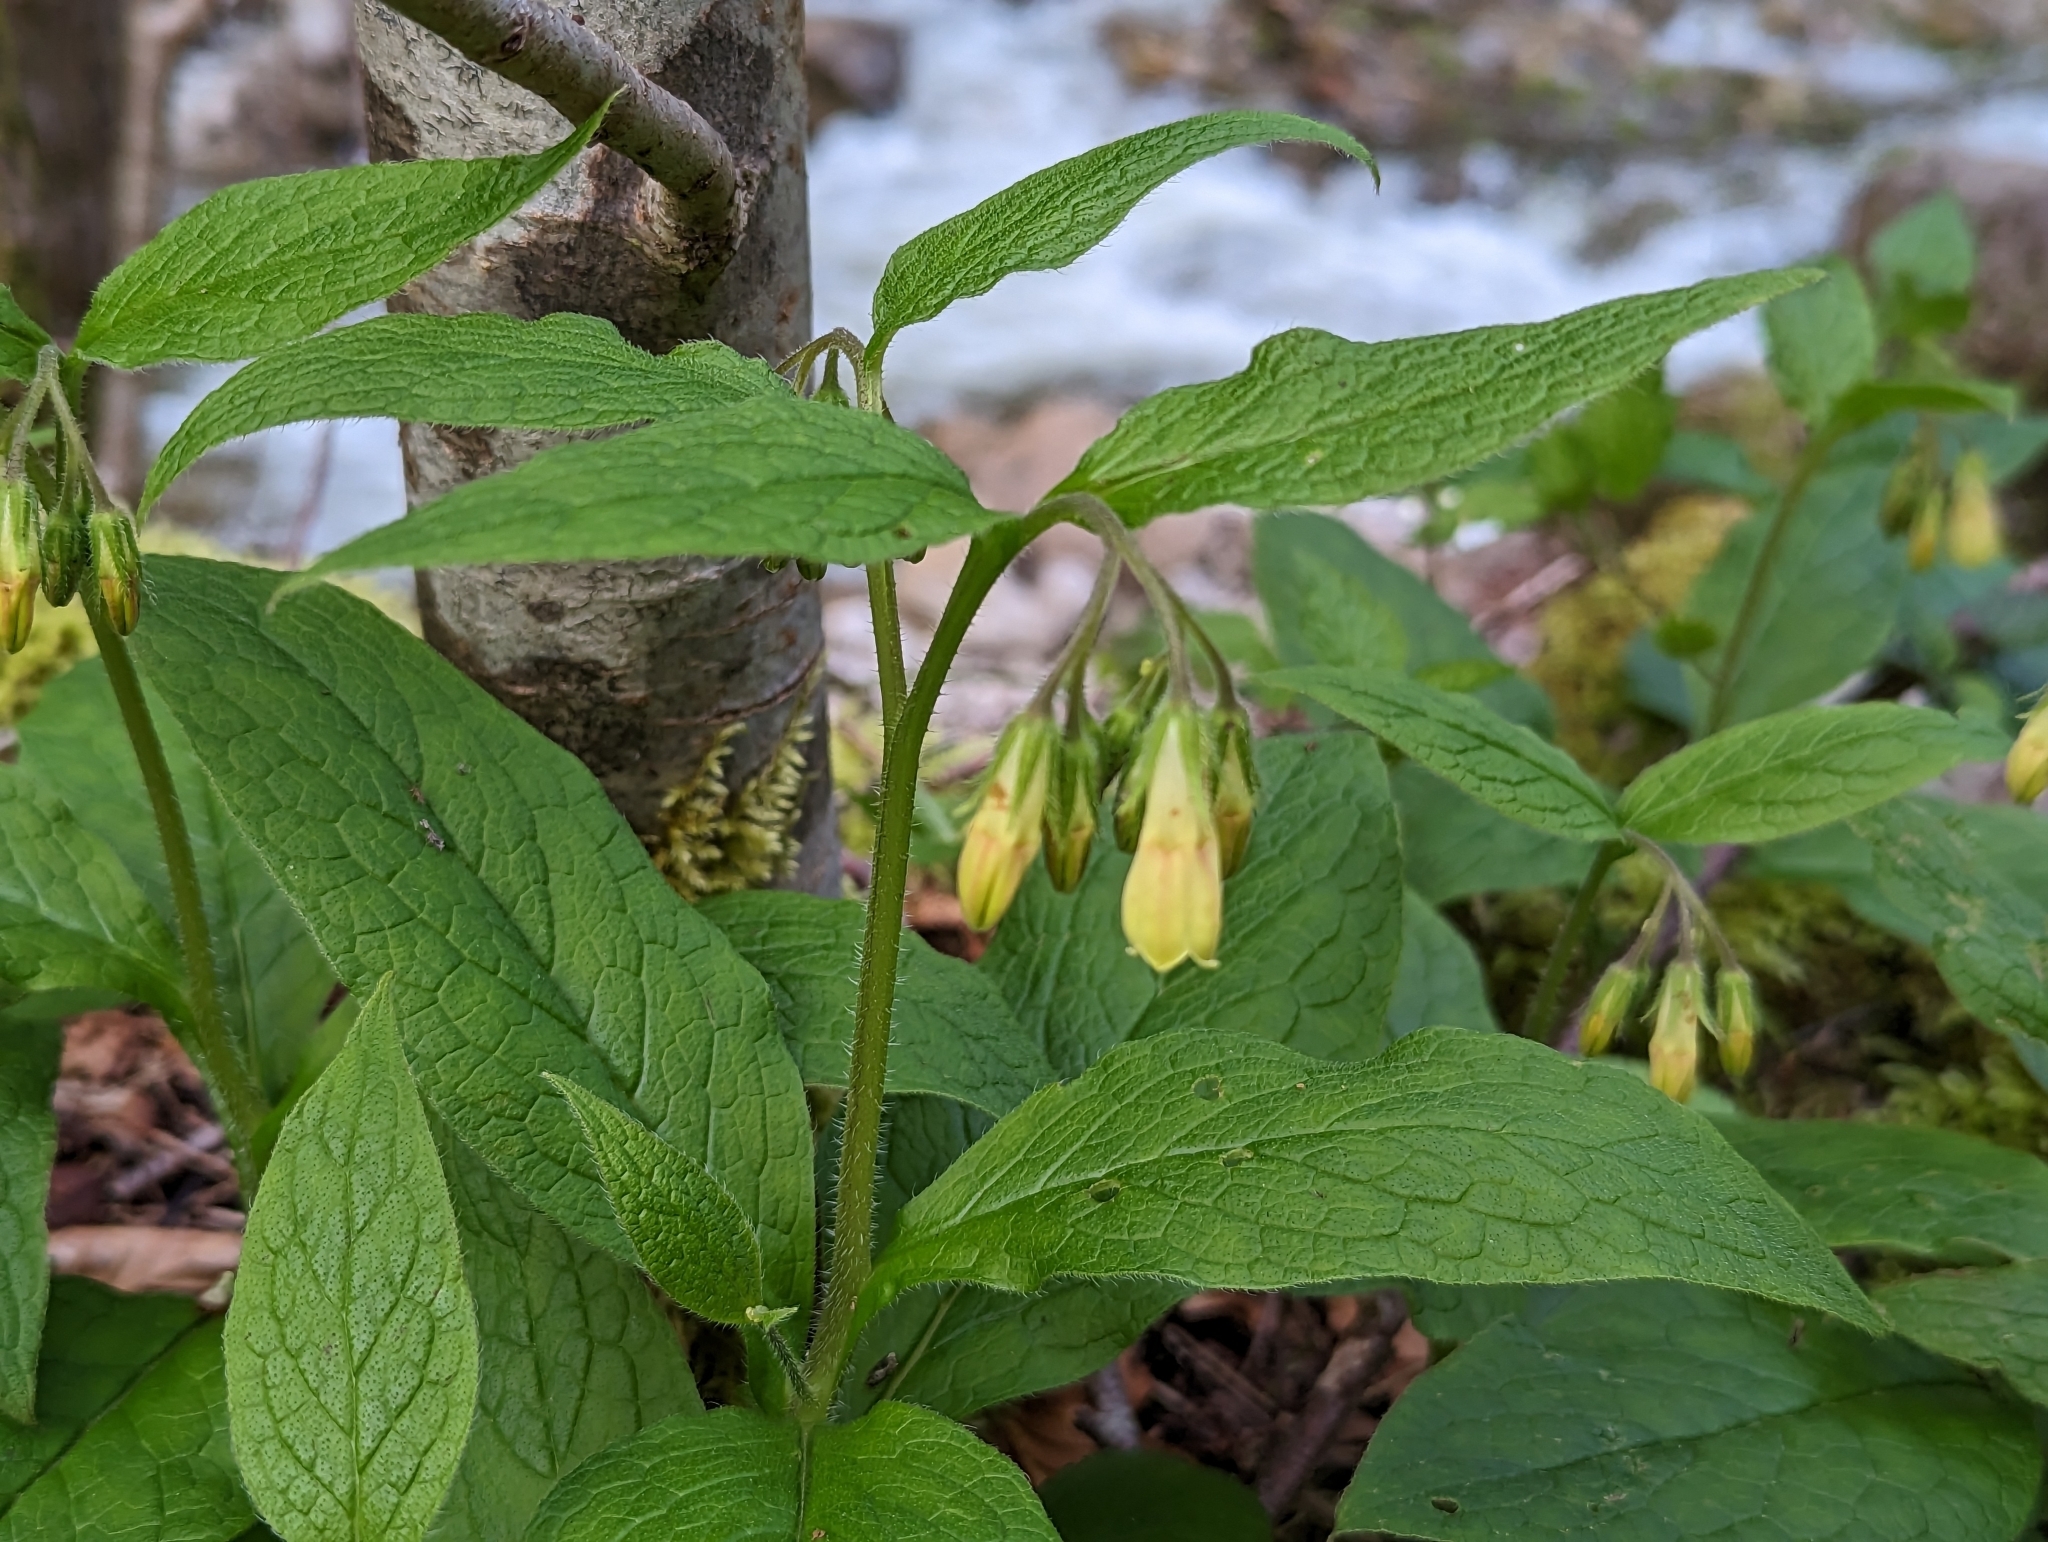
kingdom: Plantae
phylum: Tracheophyta
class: Magnoliopsida
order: Boraginales
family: Boraginaceae
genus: Symphytum
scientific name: Symphytum tuberosum
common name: Tuberous comfrey
